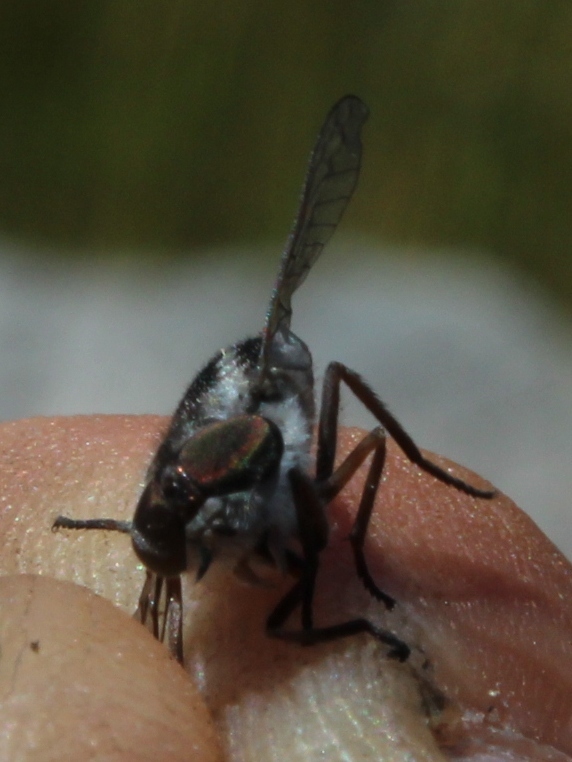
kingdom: Animalia
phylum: Arthropoda
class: Insecta
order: Diptera
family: Tabanidae
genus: Tabanus
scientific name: Tabanus taeniatus
